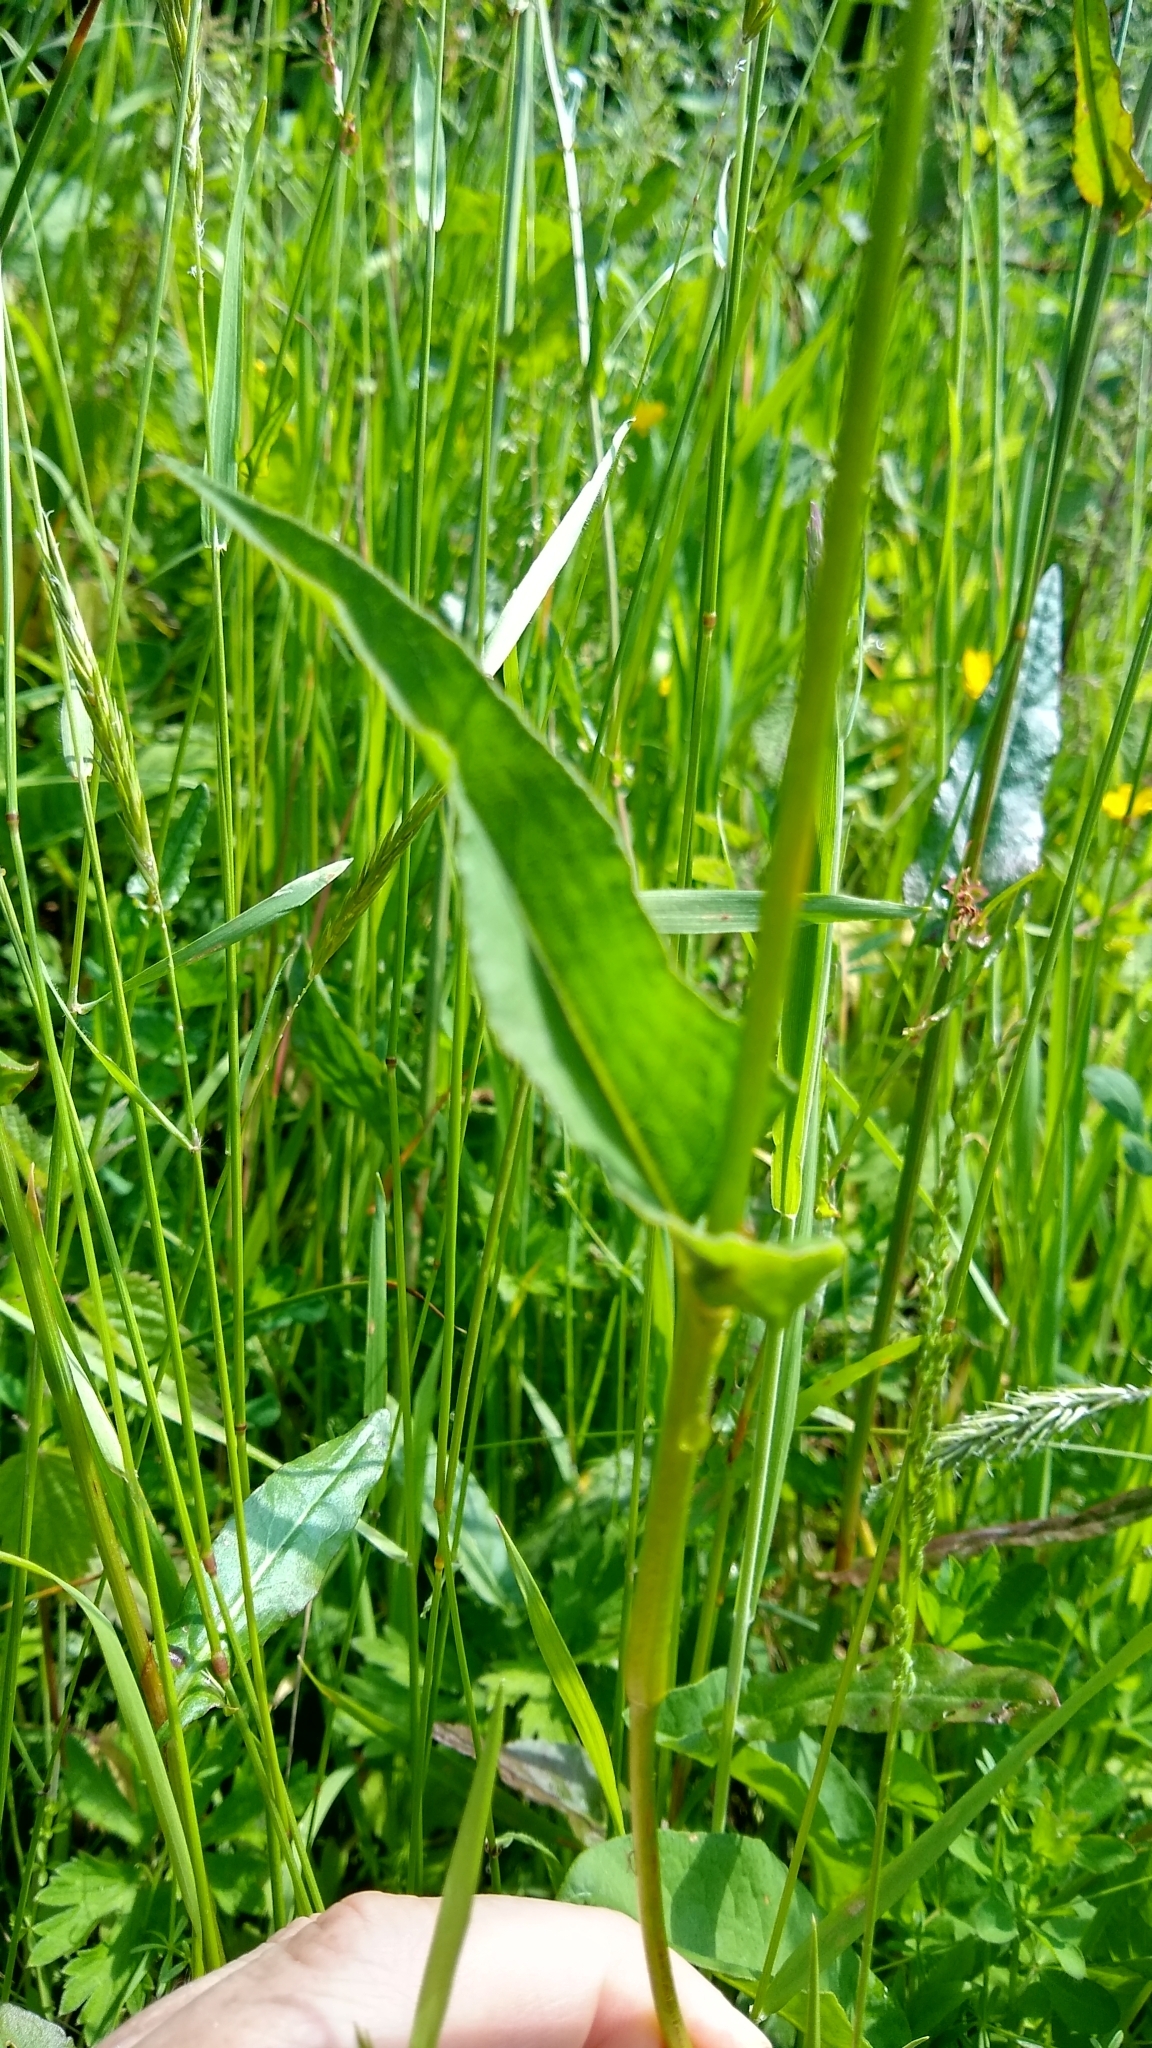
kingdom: Plantae
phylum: Tracheophyta
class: Magnoliopsida
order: Caryophyllales
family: Polygonaceae
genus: Bistorta
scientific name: Bistorta officinalis
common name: Common bistort
